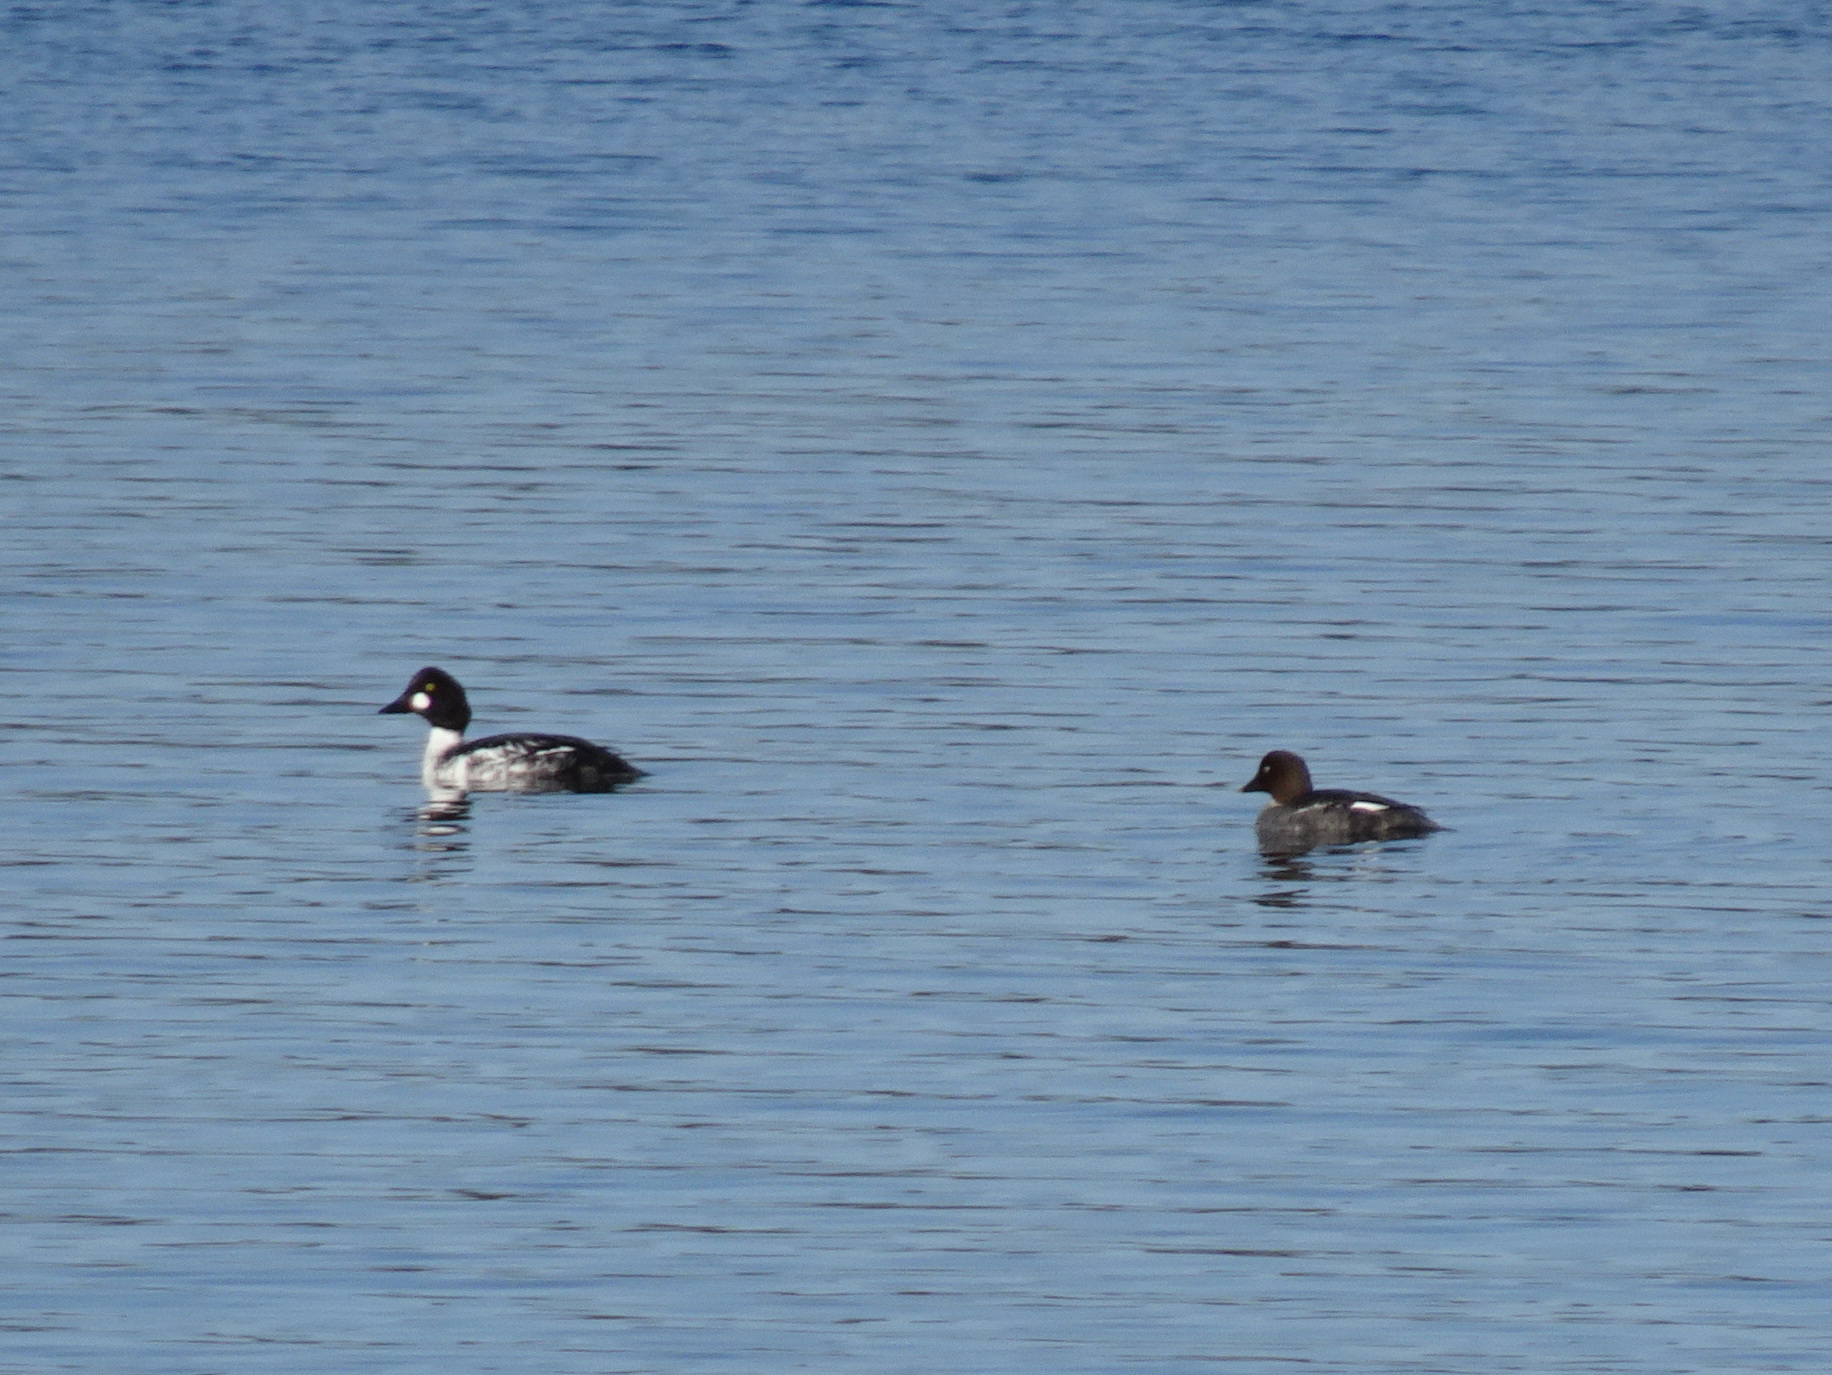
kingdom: Animalia
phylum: Chordata
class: Aves
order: Anseriformes
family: Anatidae
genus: Bucephala
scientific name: Bucephala clangula
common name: Common goldeneye
